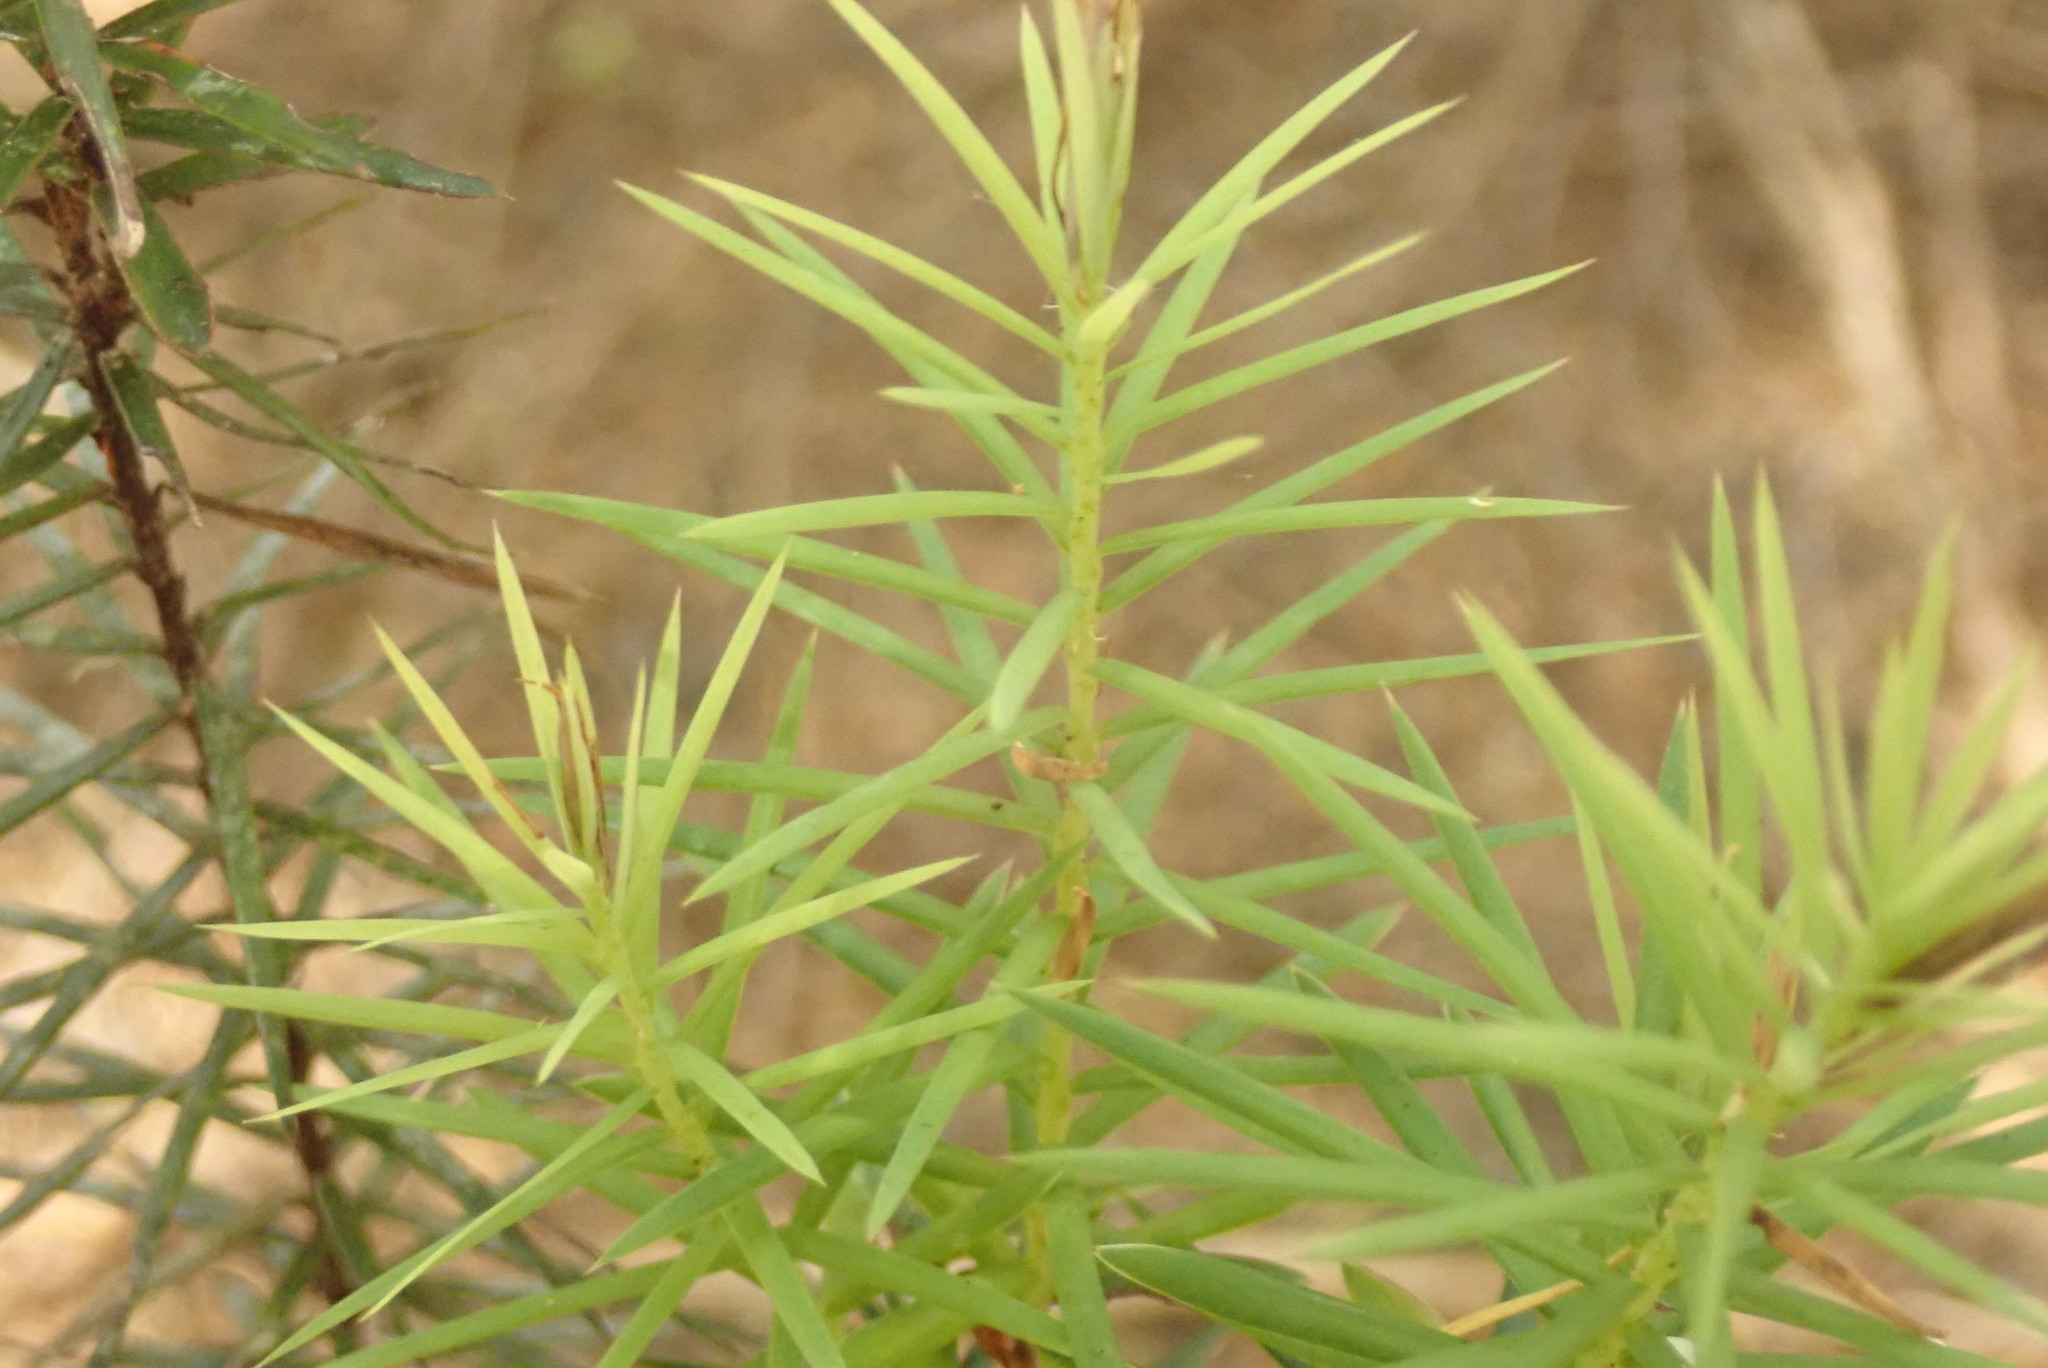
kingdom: Plantae
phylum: Tracheophyta
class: Magnoliopsida
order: Ericales
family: Ericaceae
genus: Leptecophylla
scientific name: Leptecophylla juniperina
